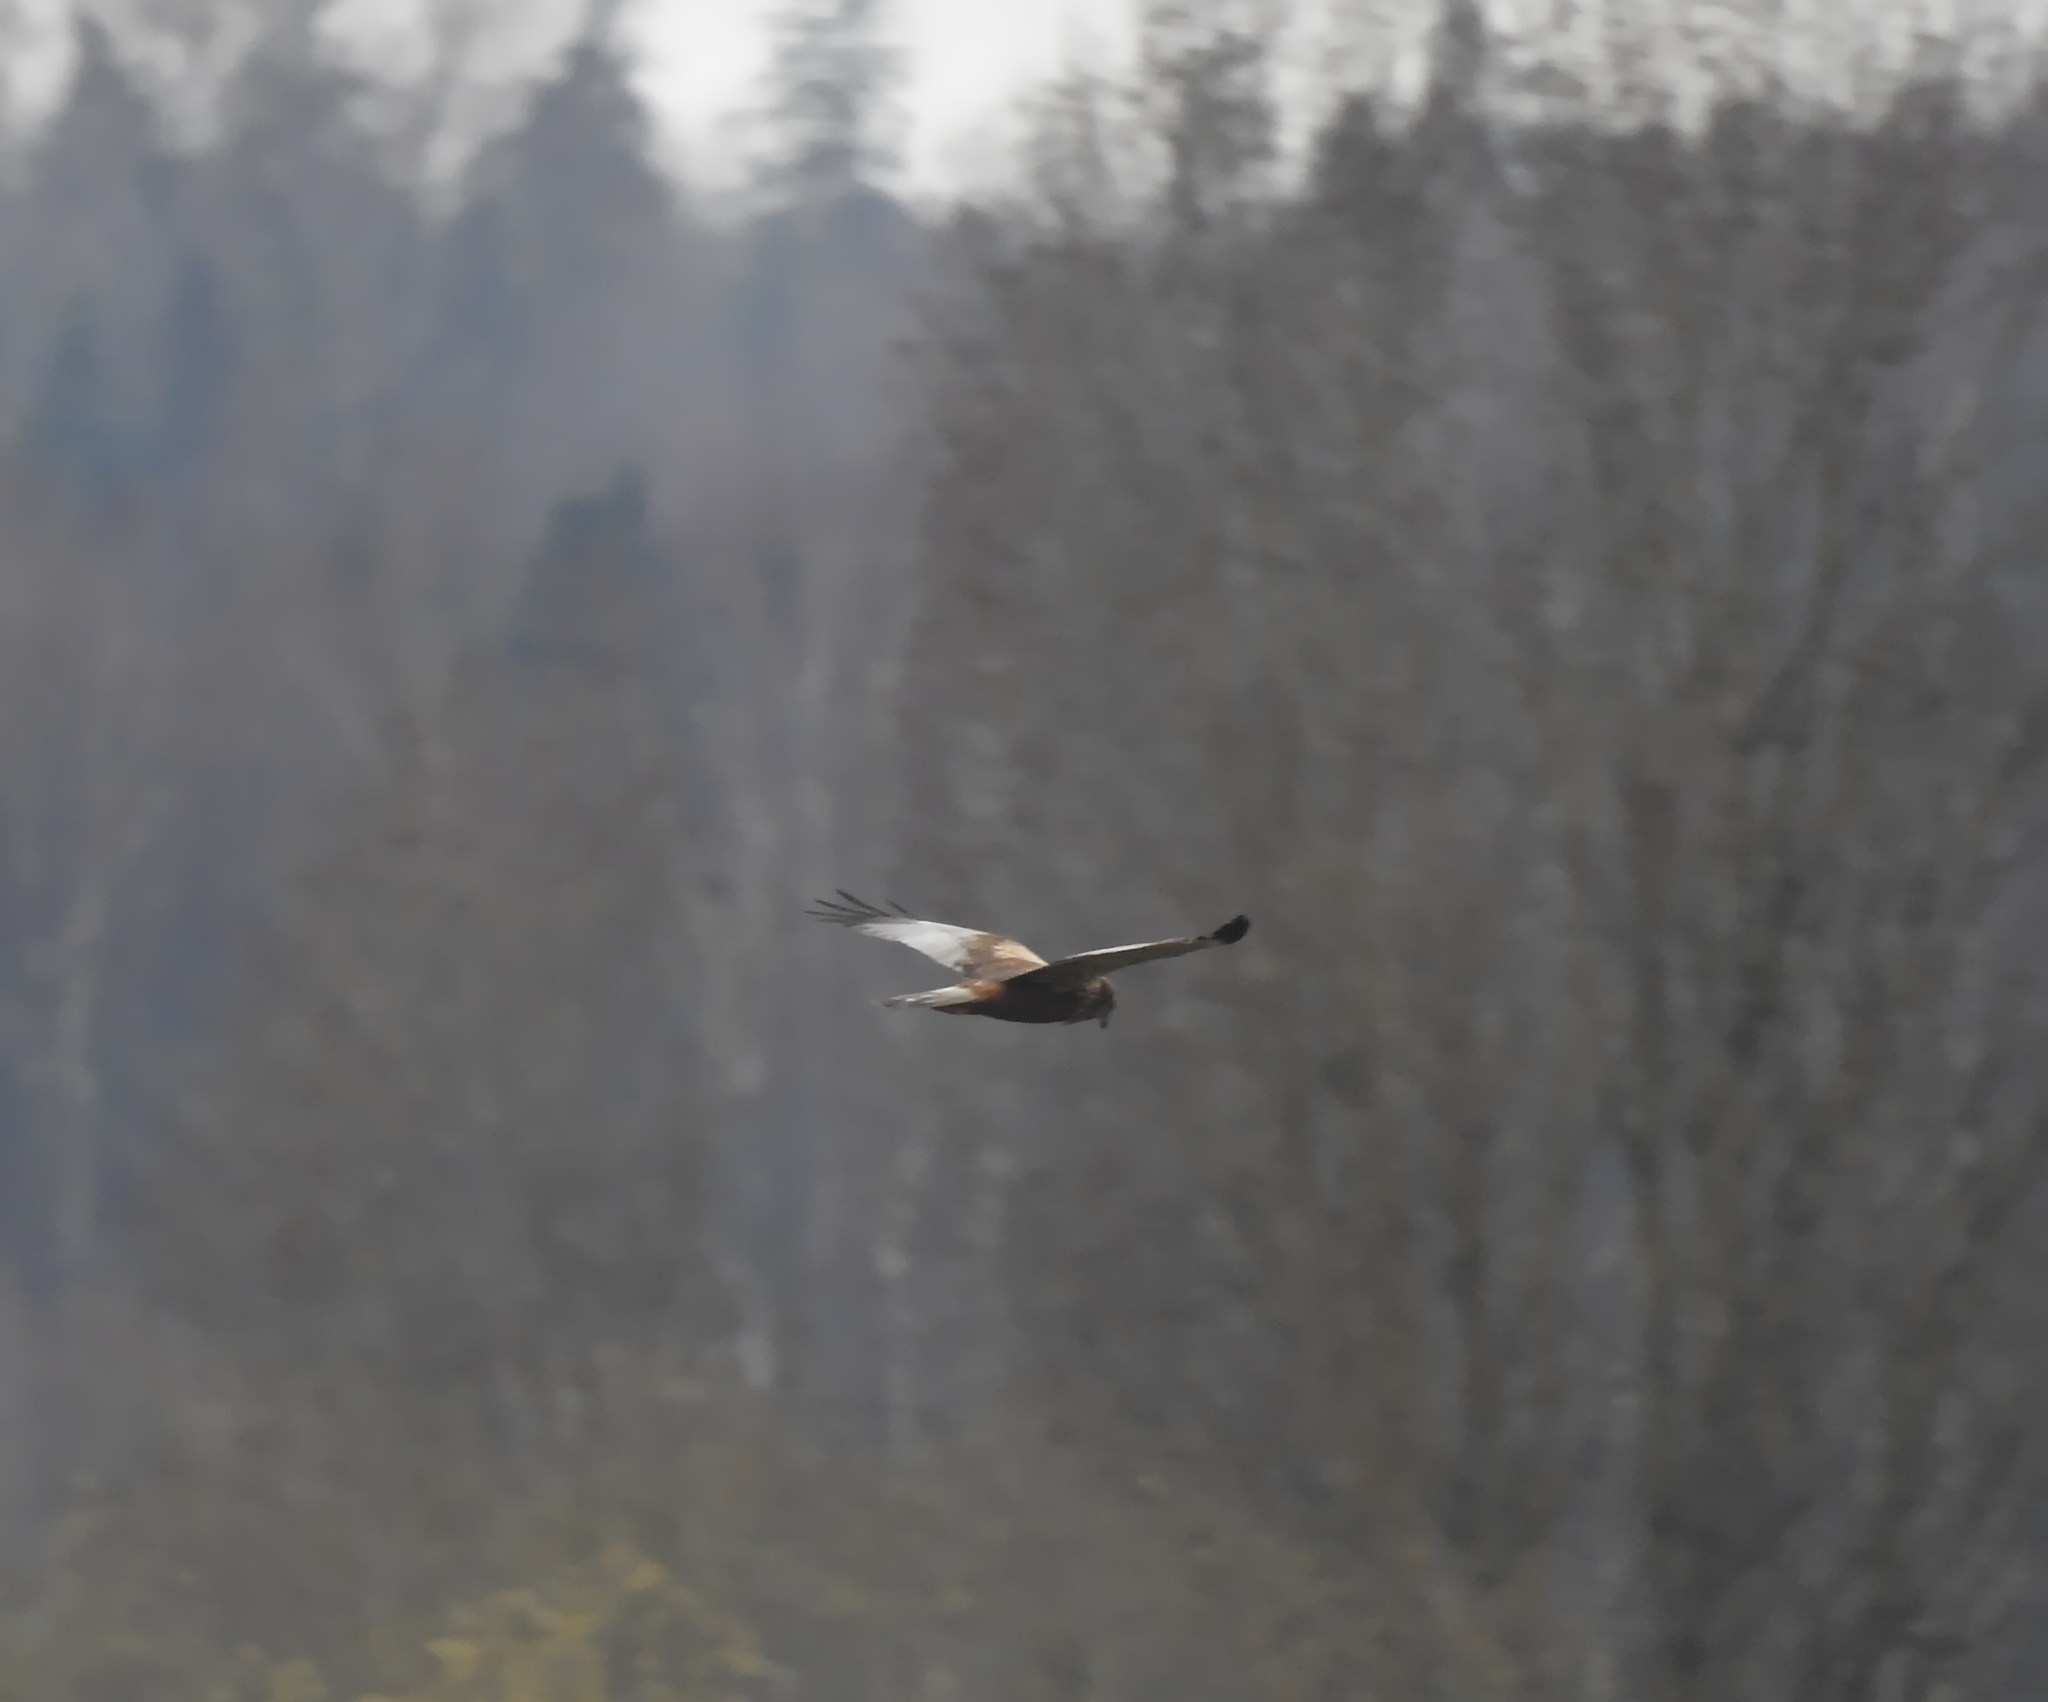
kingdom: Animalia
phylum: Chordata
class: Aves
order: Accipitriformes
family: Accipitridae
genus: Circus
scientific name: Circus aeruginosus
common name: Western marsh harrier
